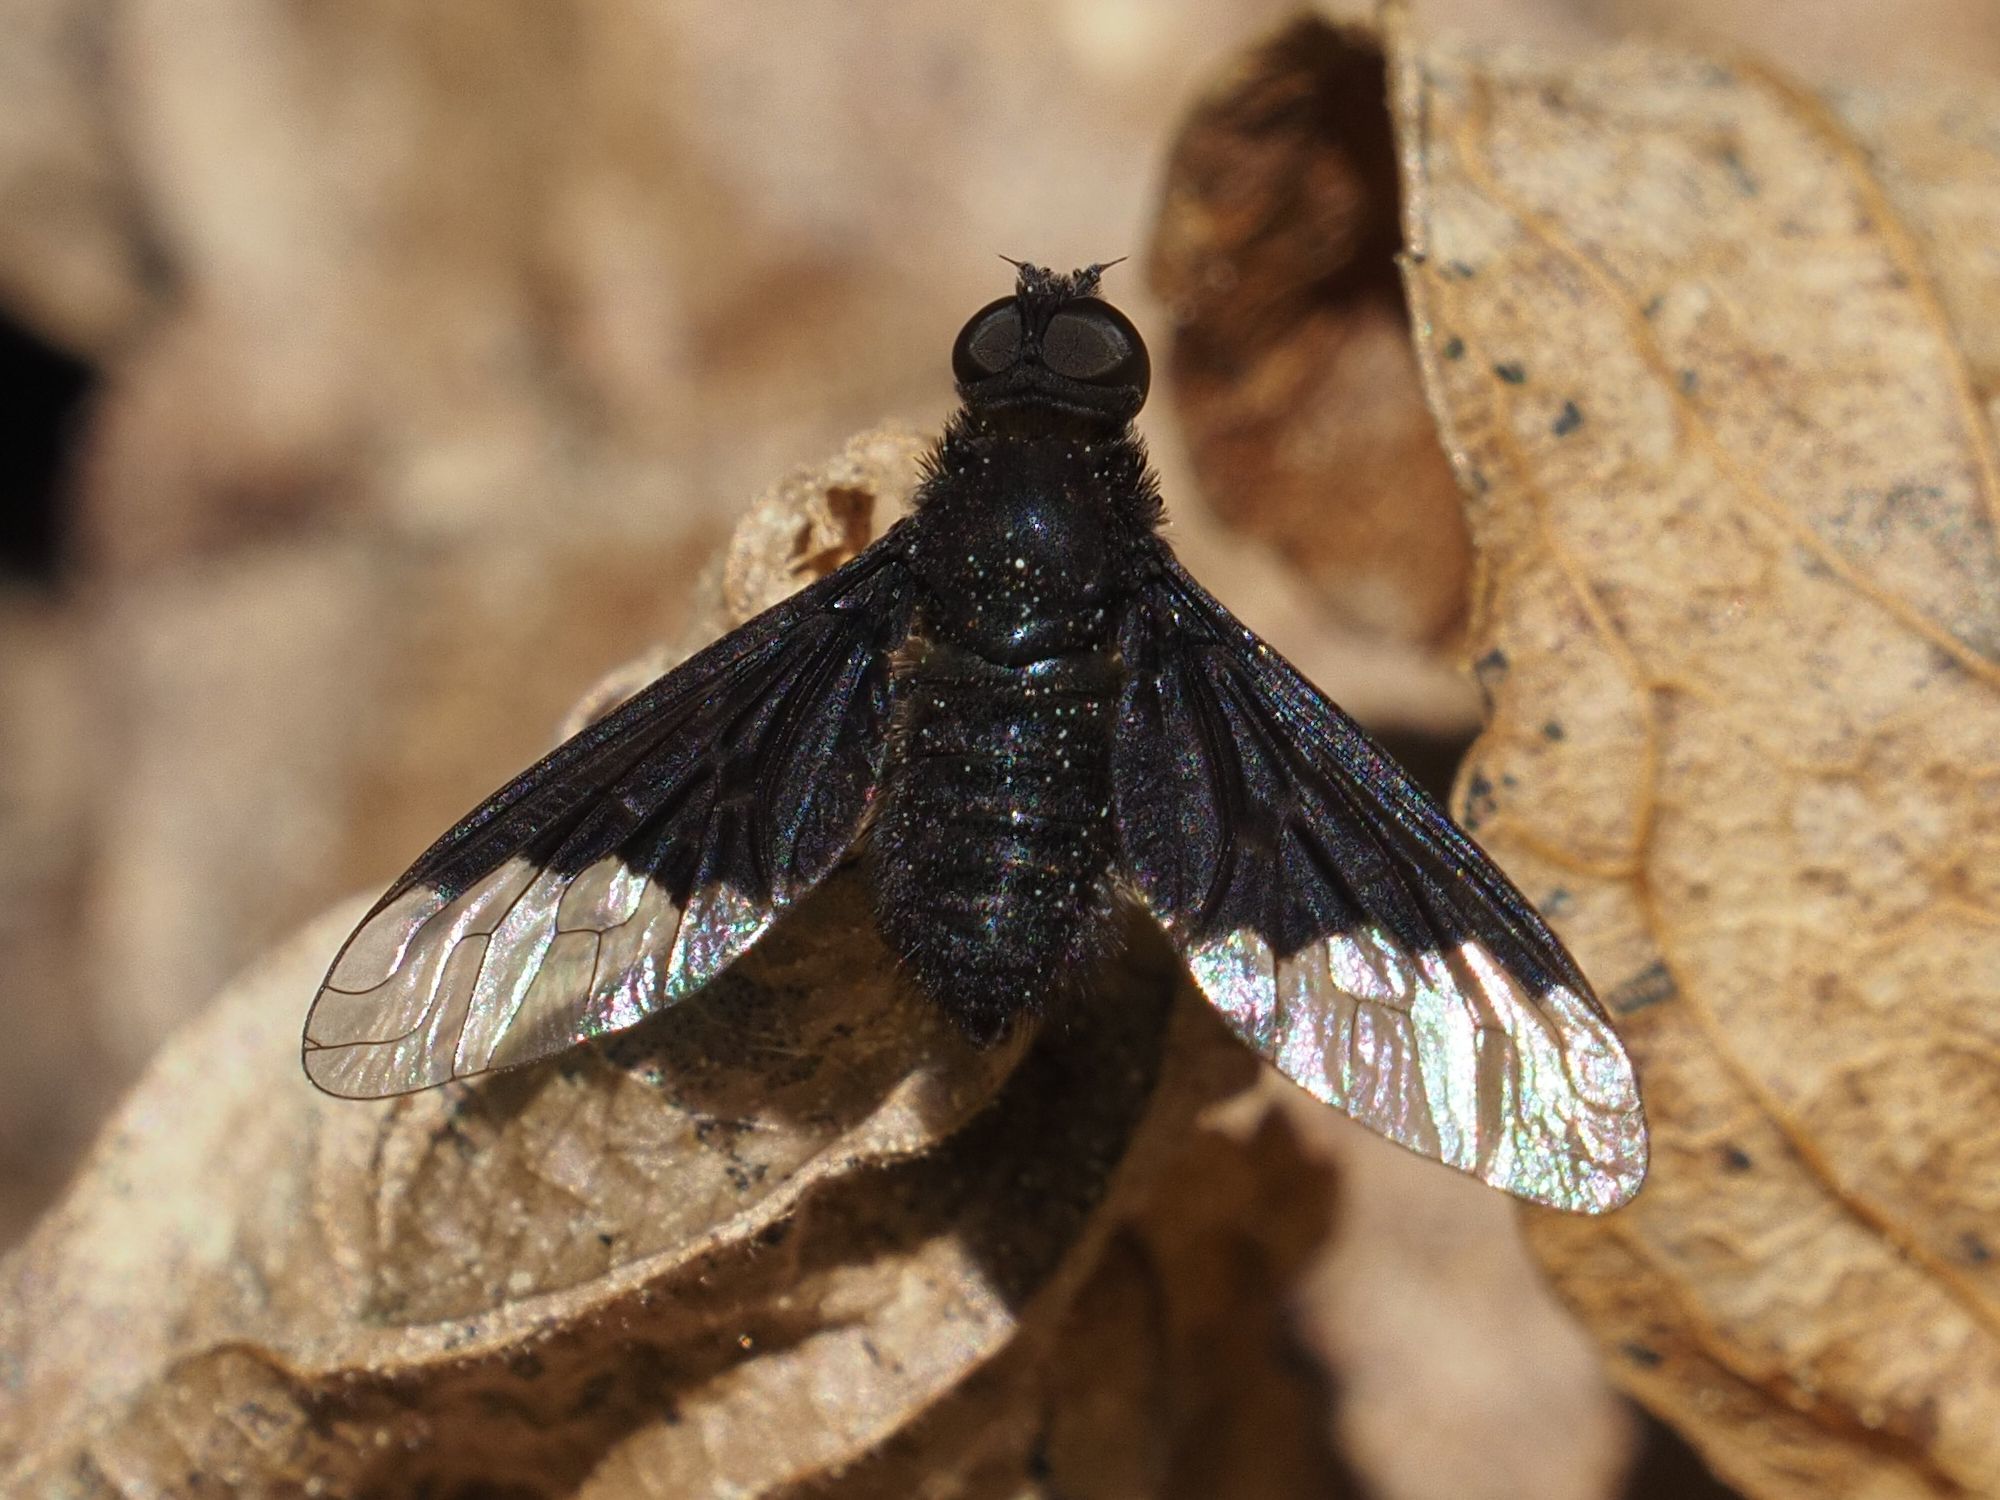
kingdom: Animalia
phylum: Arthropoda
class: Insecta
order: Diptera
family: Bombyliidae
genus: Hemipenthes
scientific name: Hemipenthes morio
